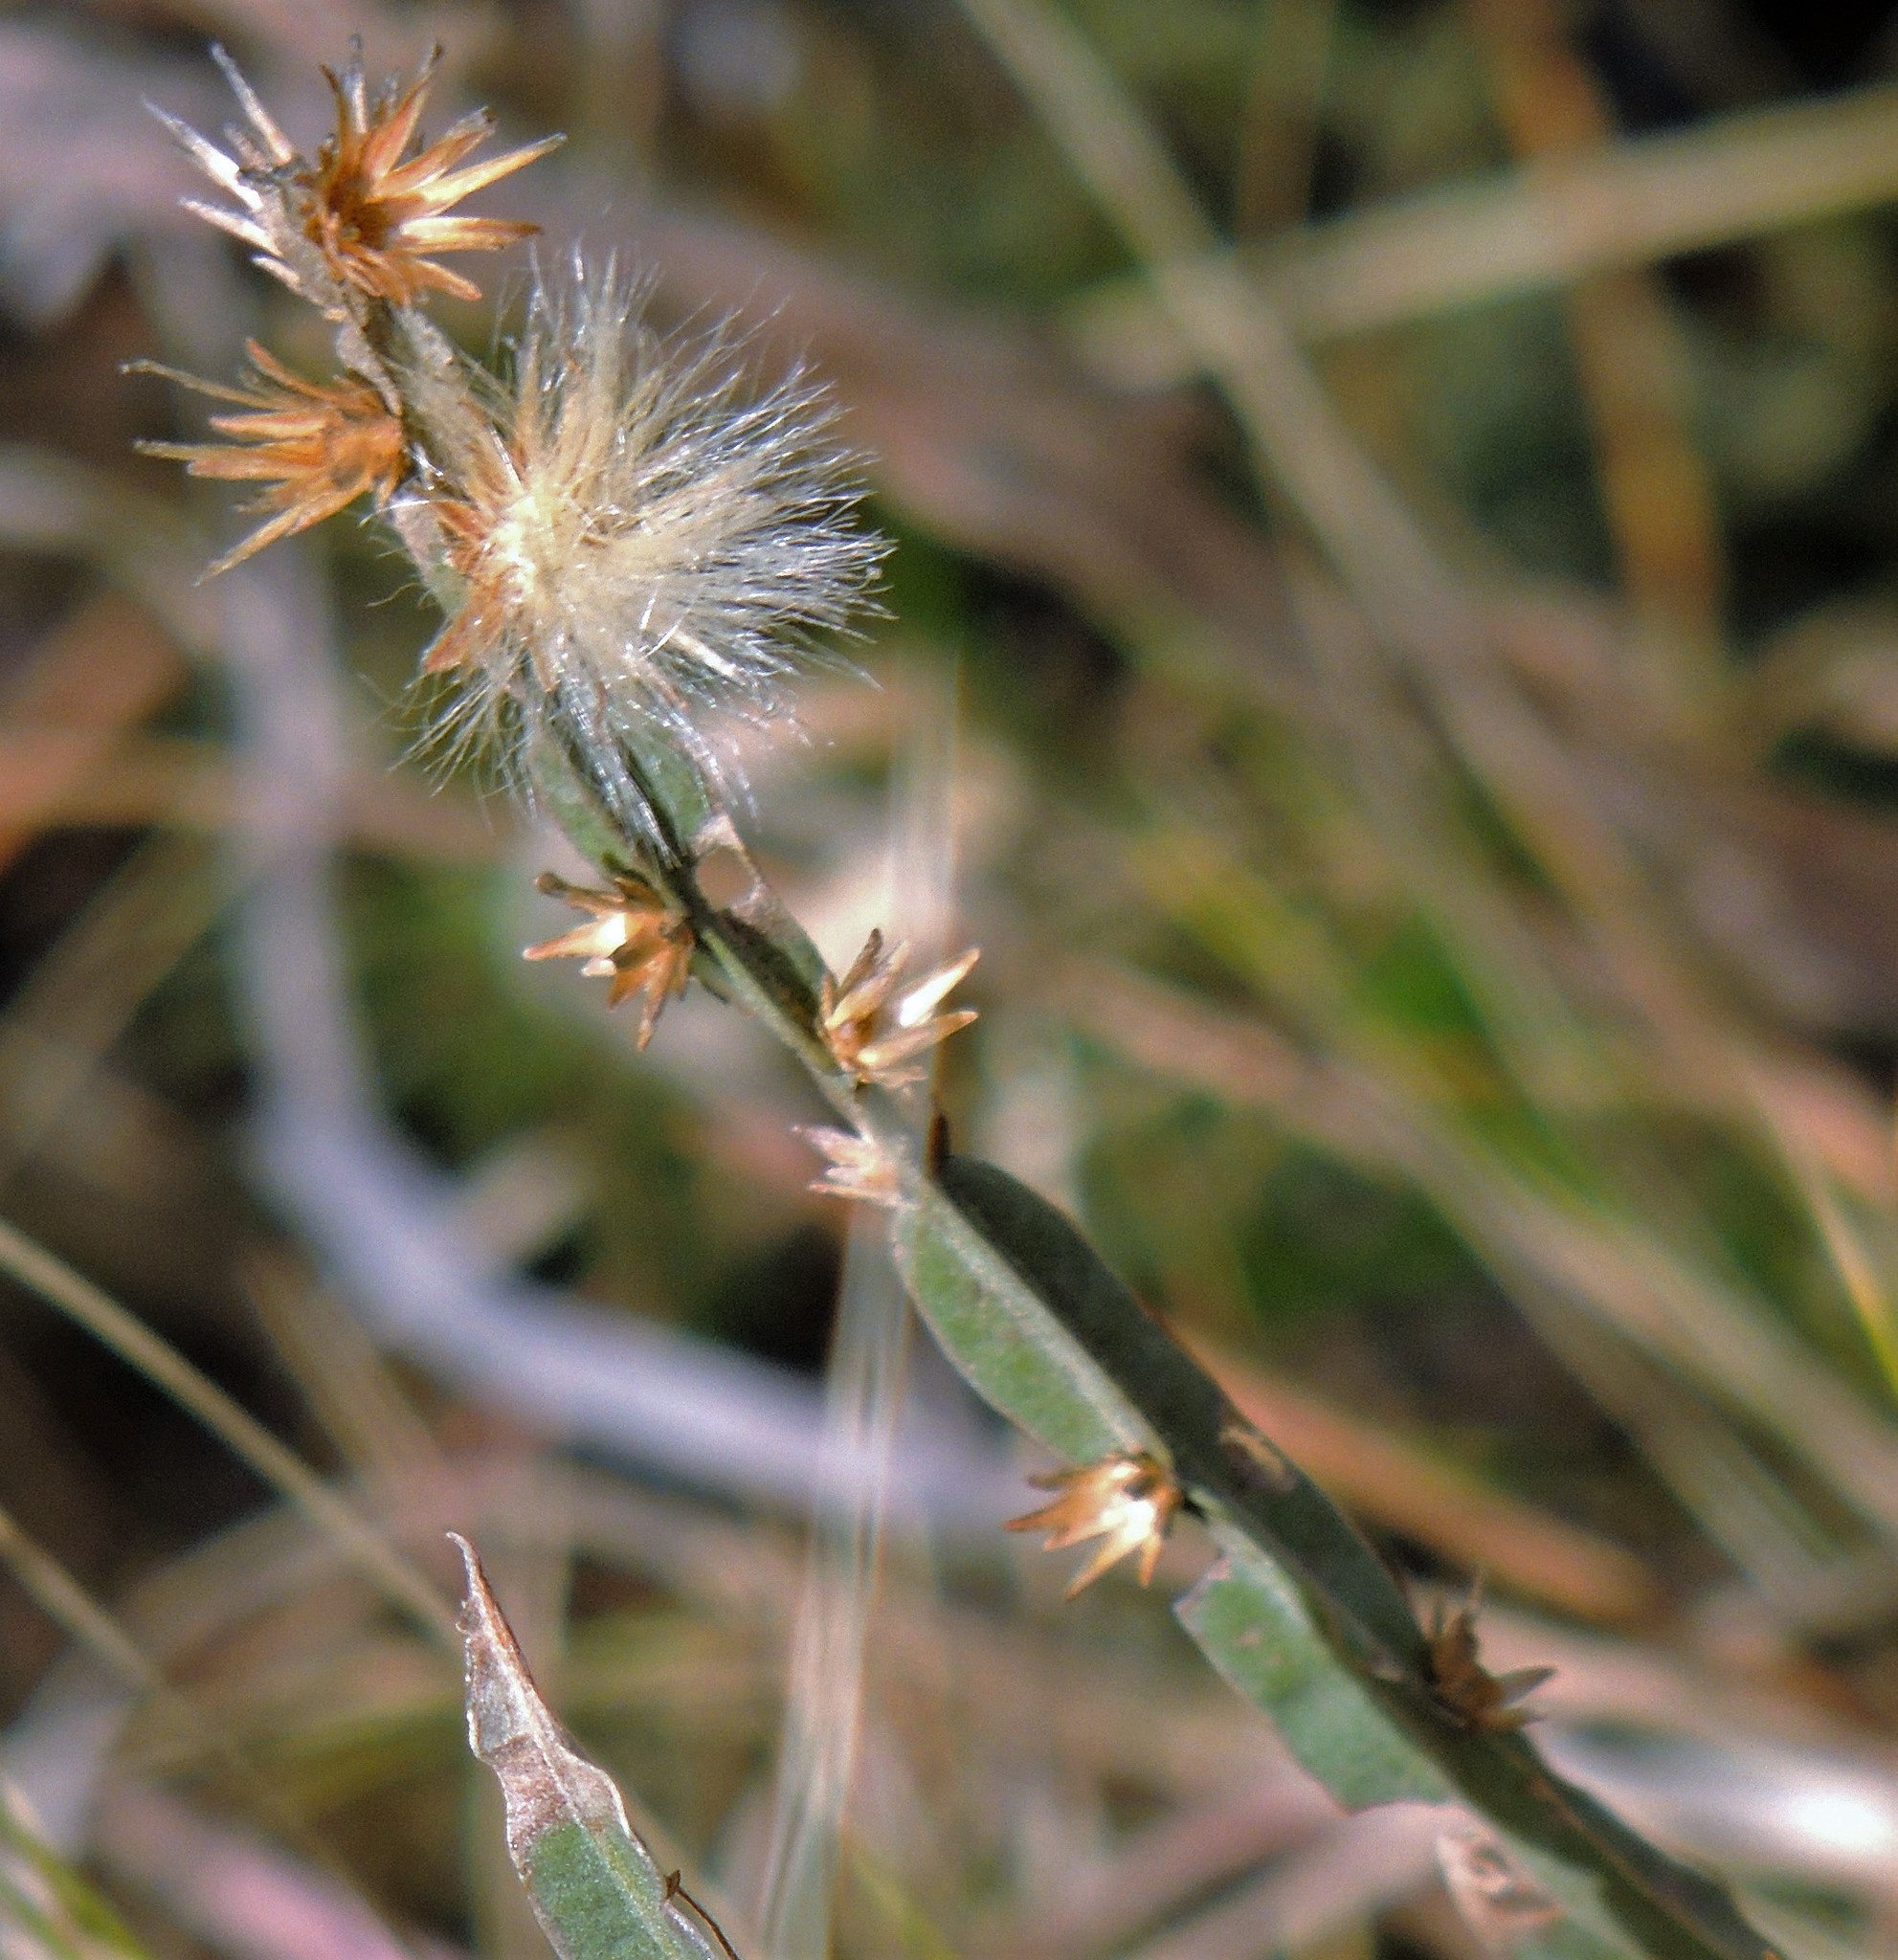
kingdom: Plantae
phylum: Tracheophyta
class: Magnoliopsida
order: Asterales
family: Asteraceae
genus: Baccharis
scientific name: Baccharis crispa
